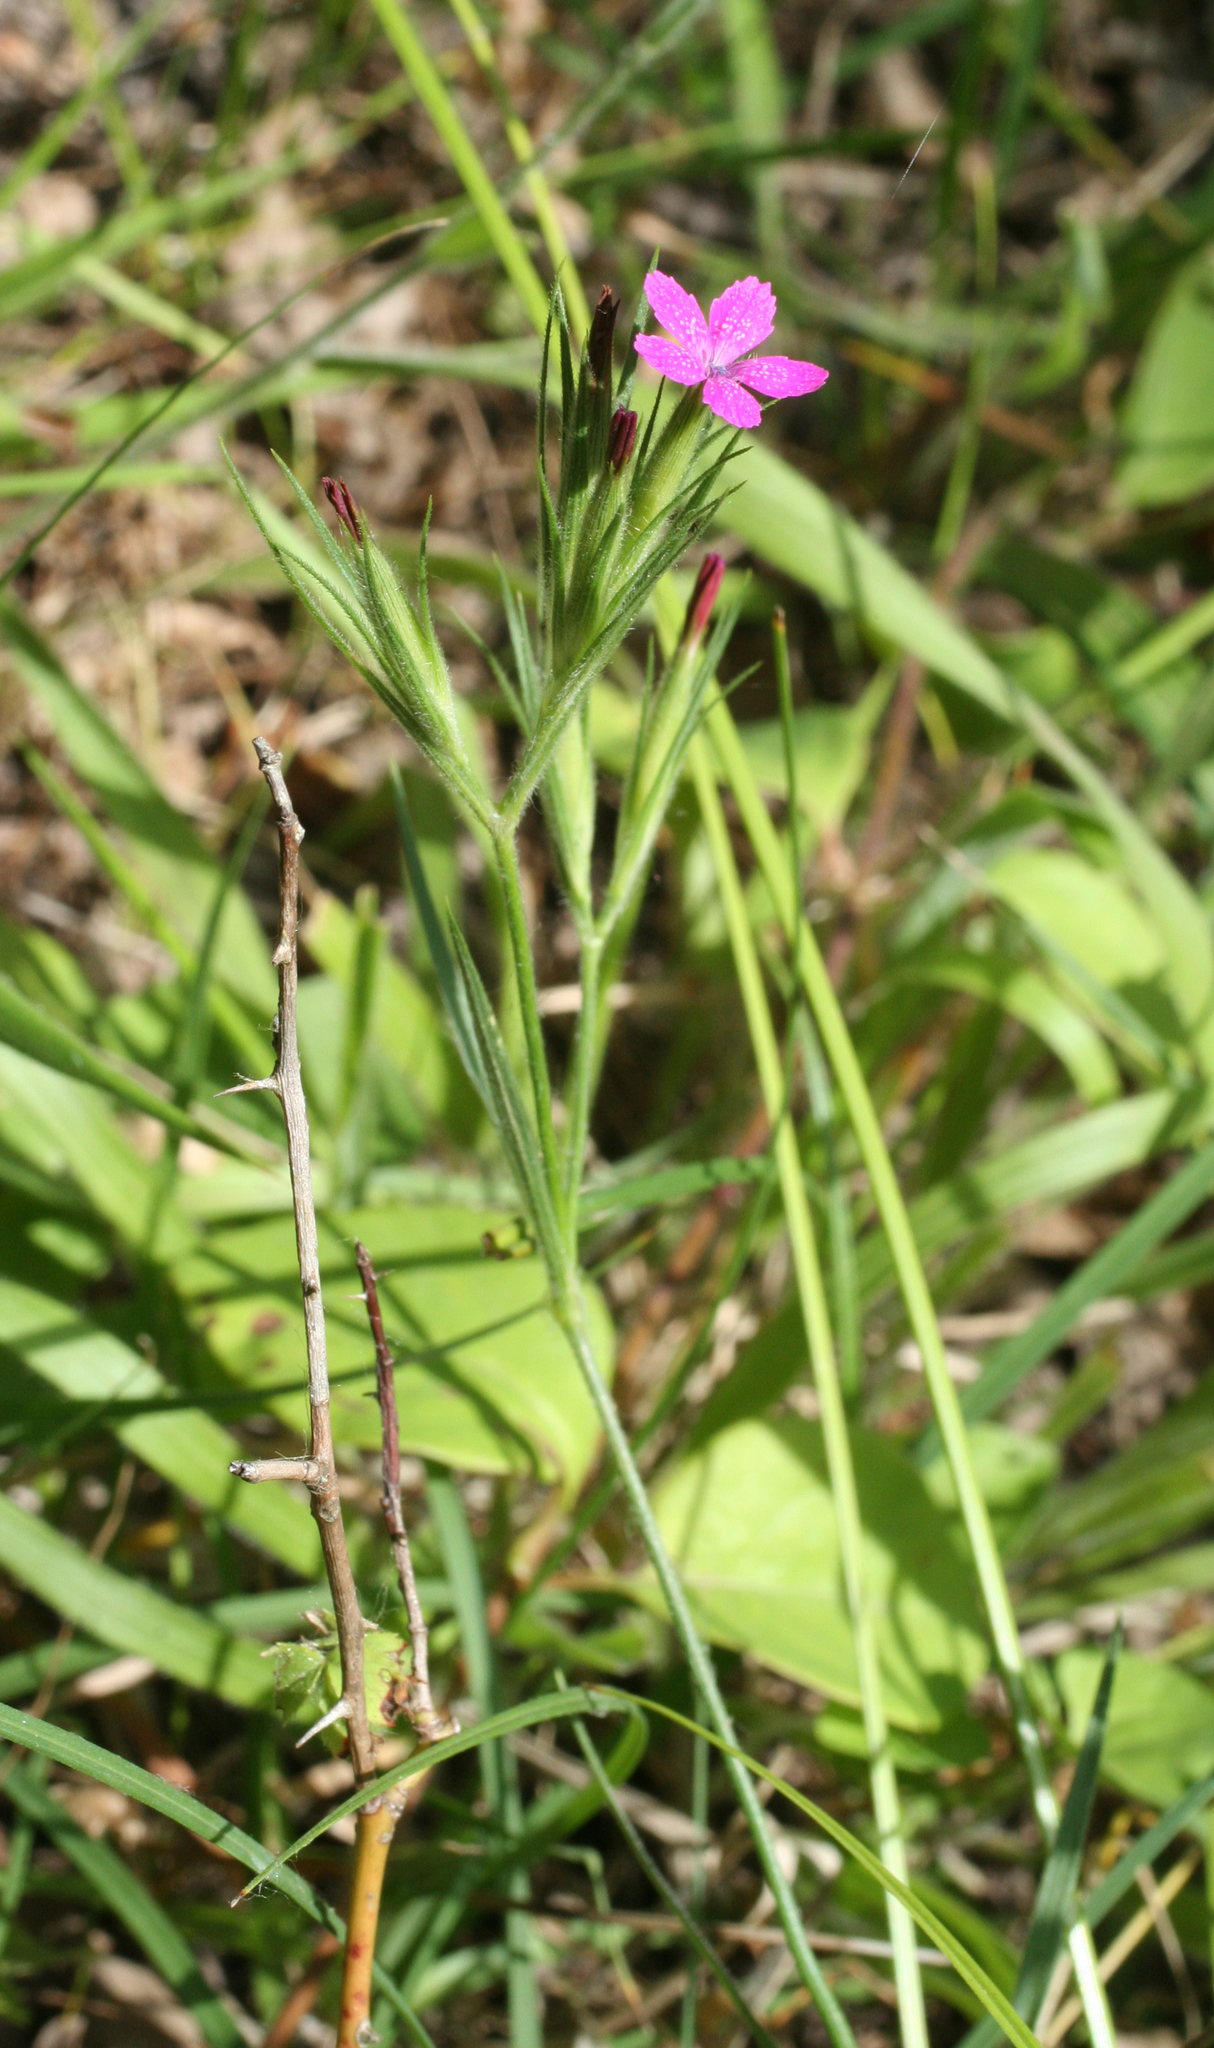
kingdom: Plantae
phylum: Tracheophyta
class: Magnoliopsida
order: Caryophyllales
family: Caryophyllaceae
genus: Dianthus
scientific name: Dianthus armeria
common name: Deptford pink
